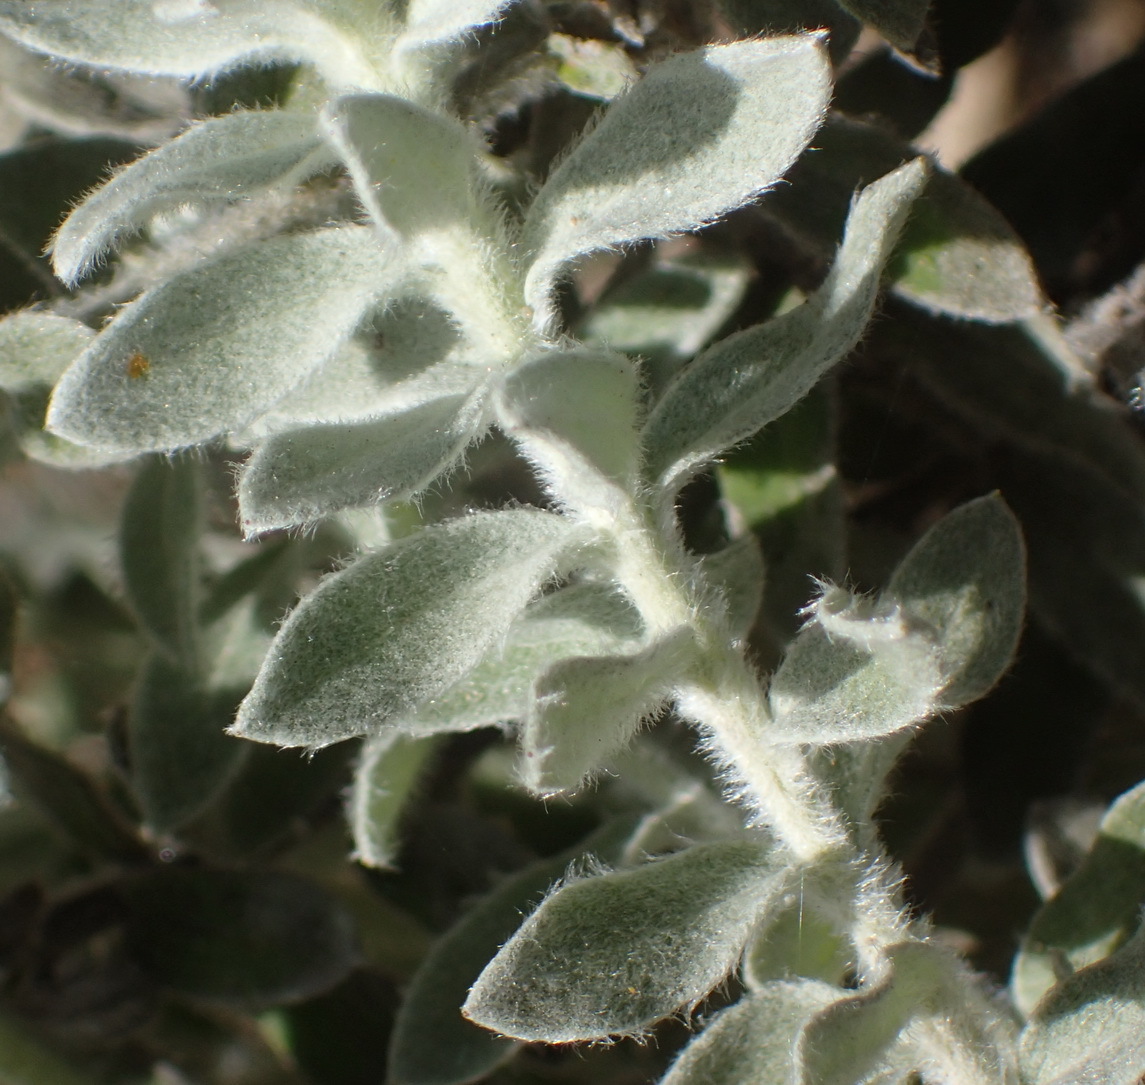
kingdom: Plantae
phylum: Tracheophyta
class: Magnoliopsida
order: Asterales
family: Asteraceae
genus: Helichrysum
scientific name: Helichrysum dasyanthum
